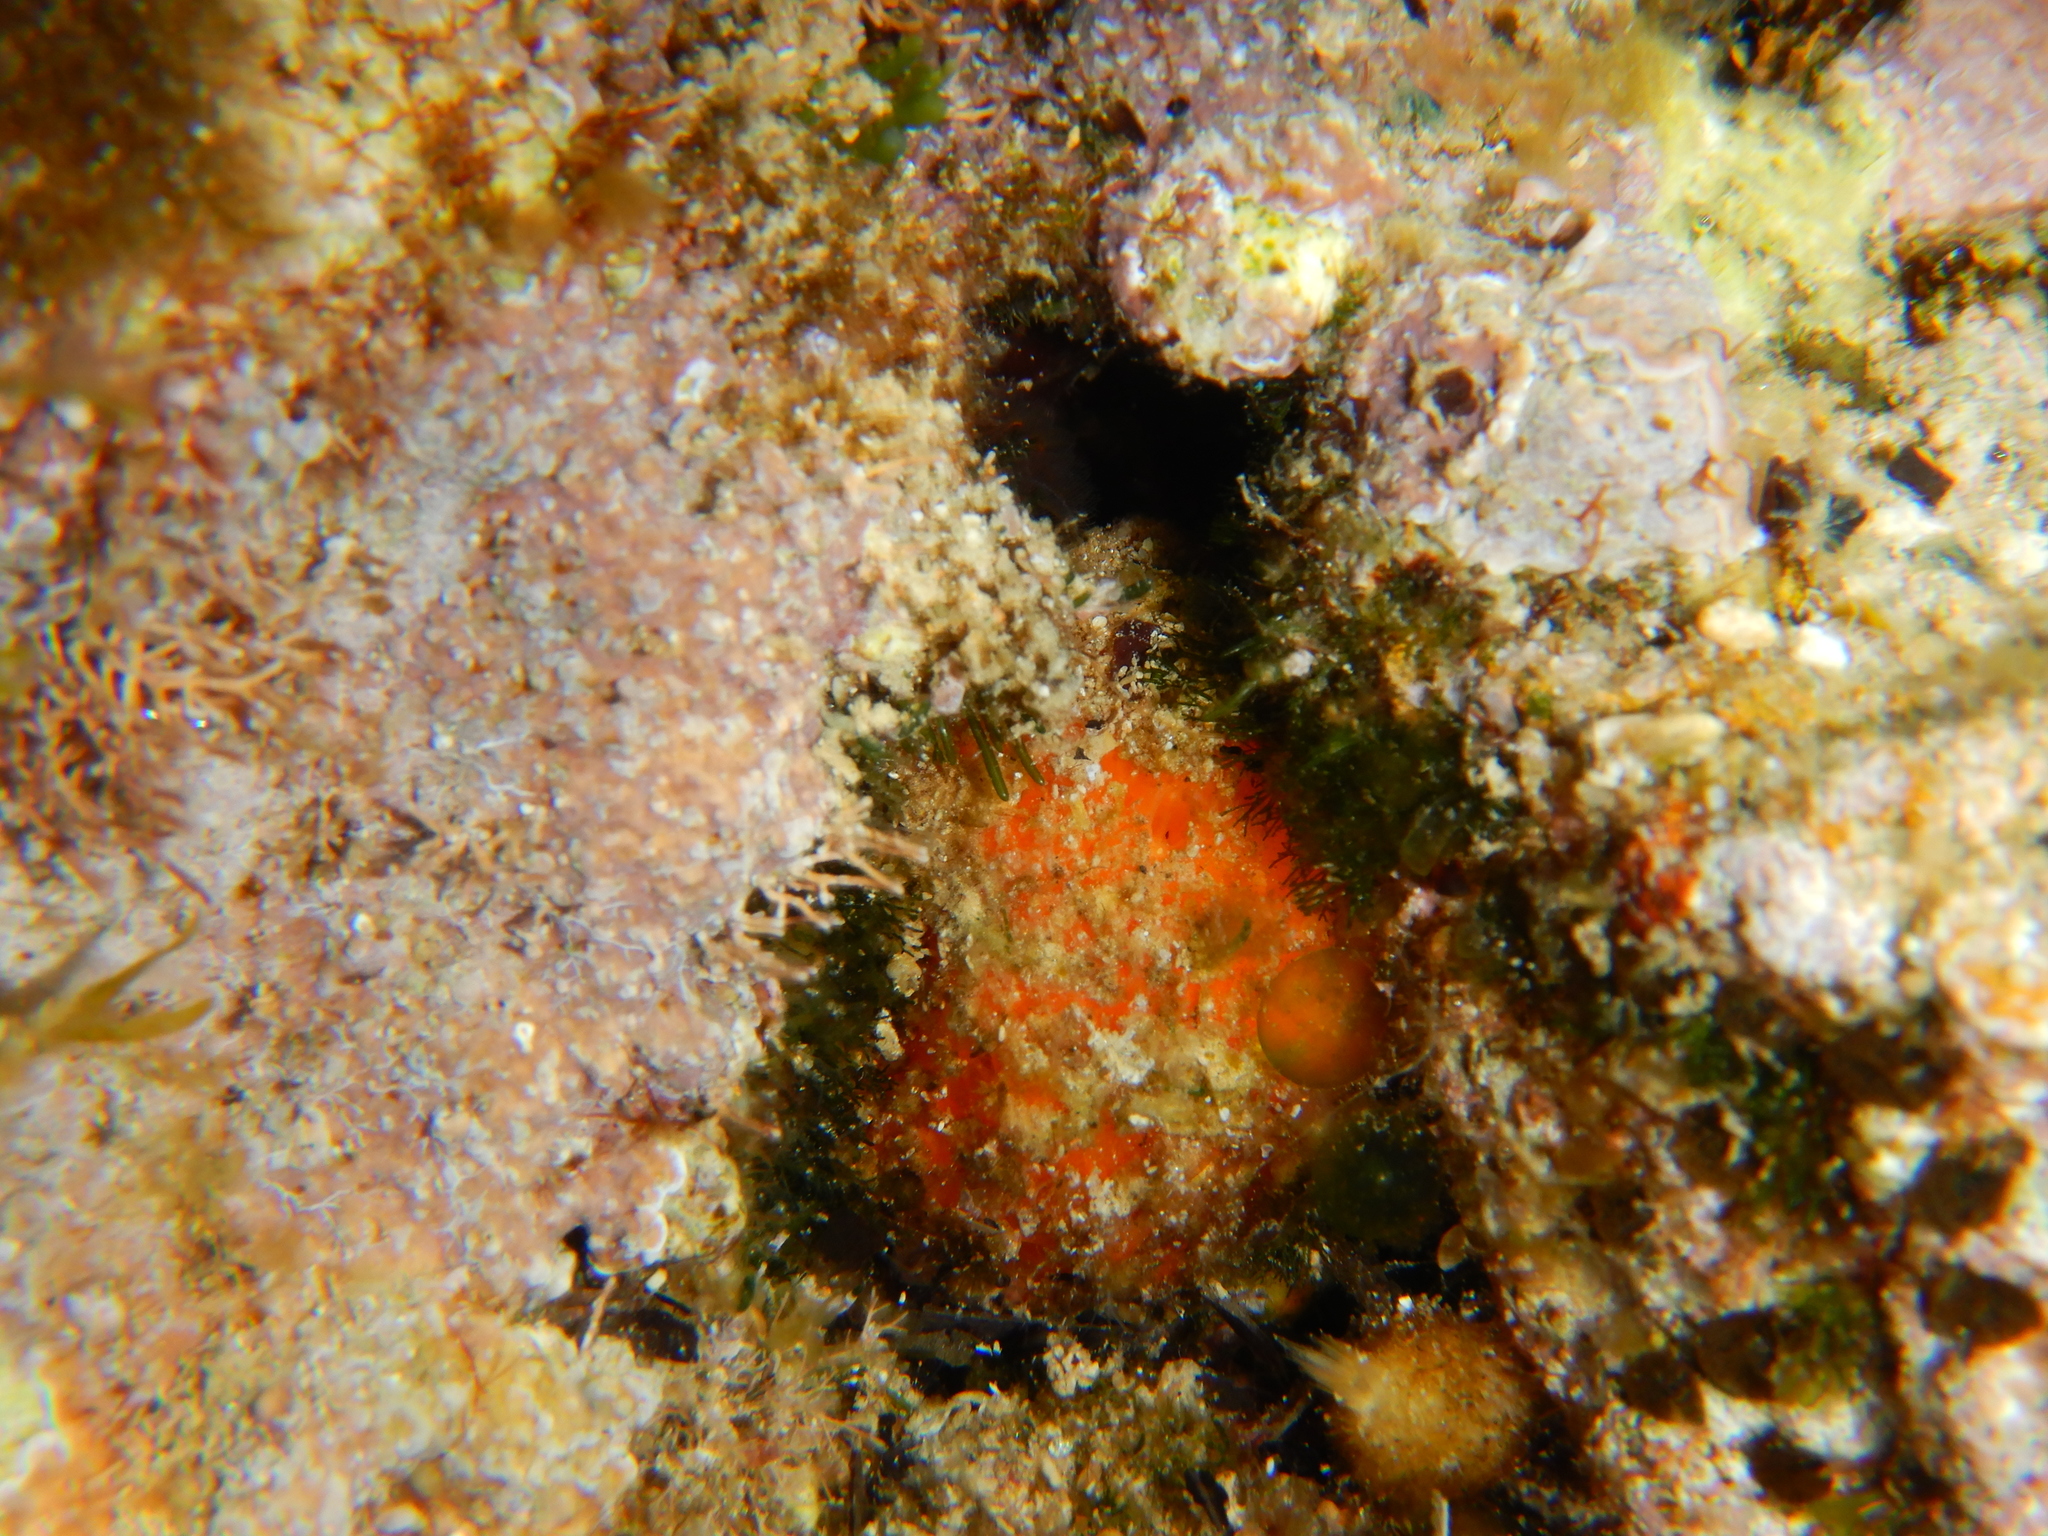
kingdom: Animalia
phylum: Porifera
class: Demospongiae
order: Tethyida
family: Tethyidae
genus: Tethya
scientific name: Tethya aurantium
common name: Golf ball sponge
